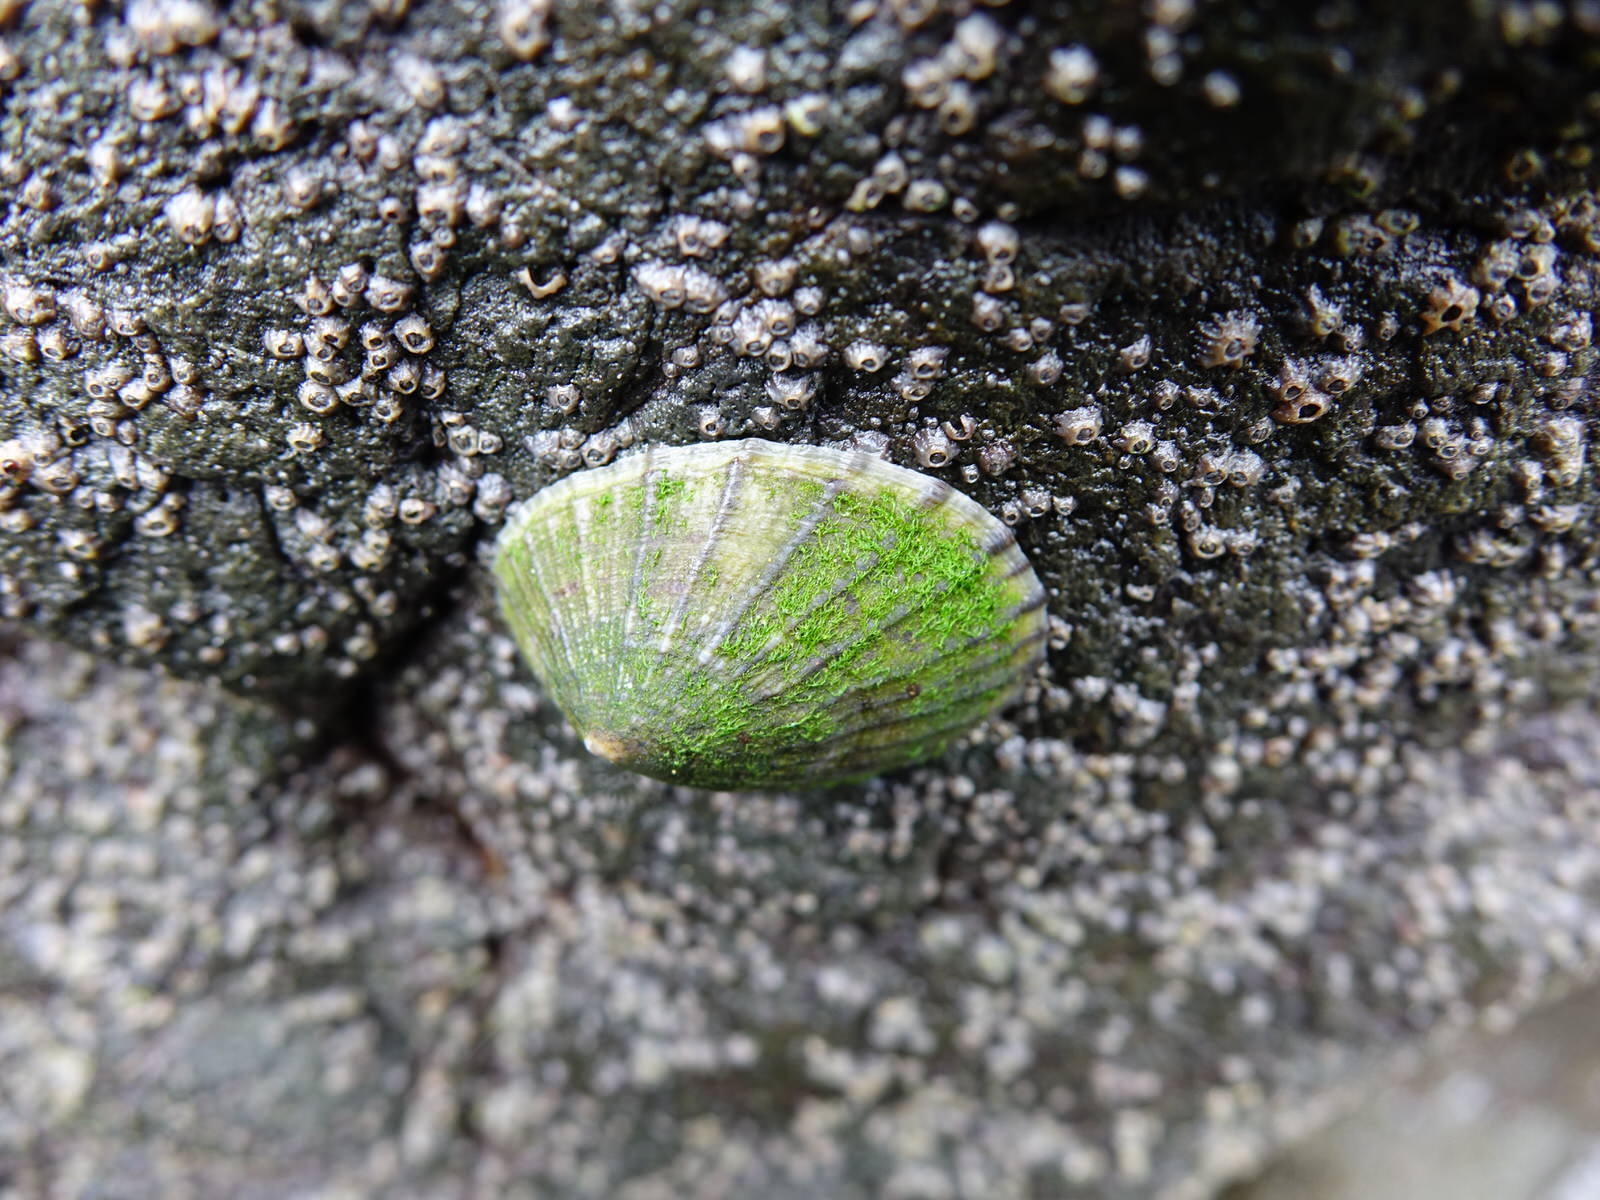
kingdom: Animalia
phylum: Mollusca
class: Gastropoda
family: Nacellidae
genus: Cellana
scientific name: Cellana radians
